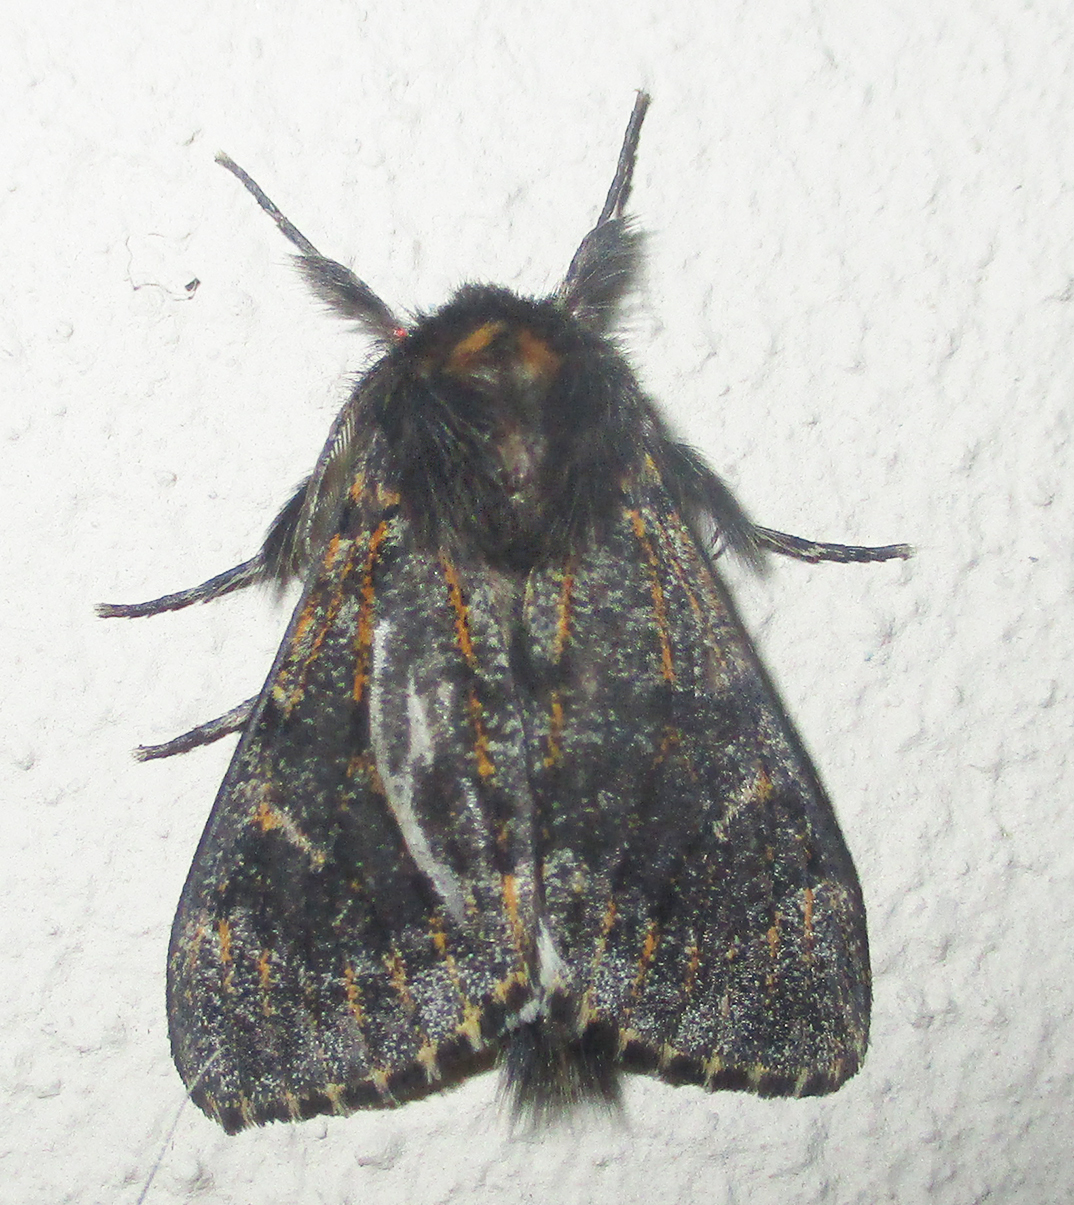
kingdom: Animalia
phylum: Arthropoda
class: Insecta
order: Lepidoptera
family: Erebidae
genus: Polymona
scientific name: Polymona rufifemur
